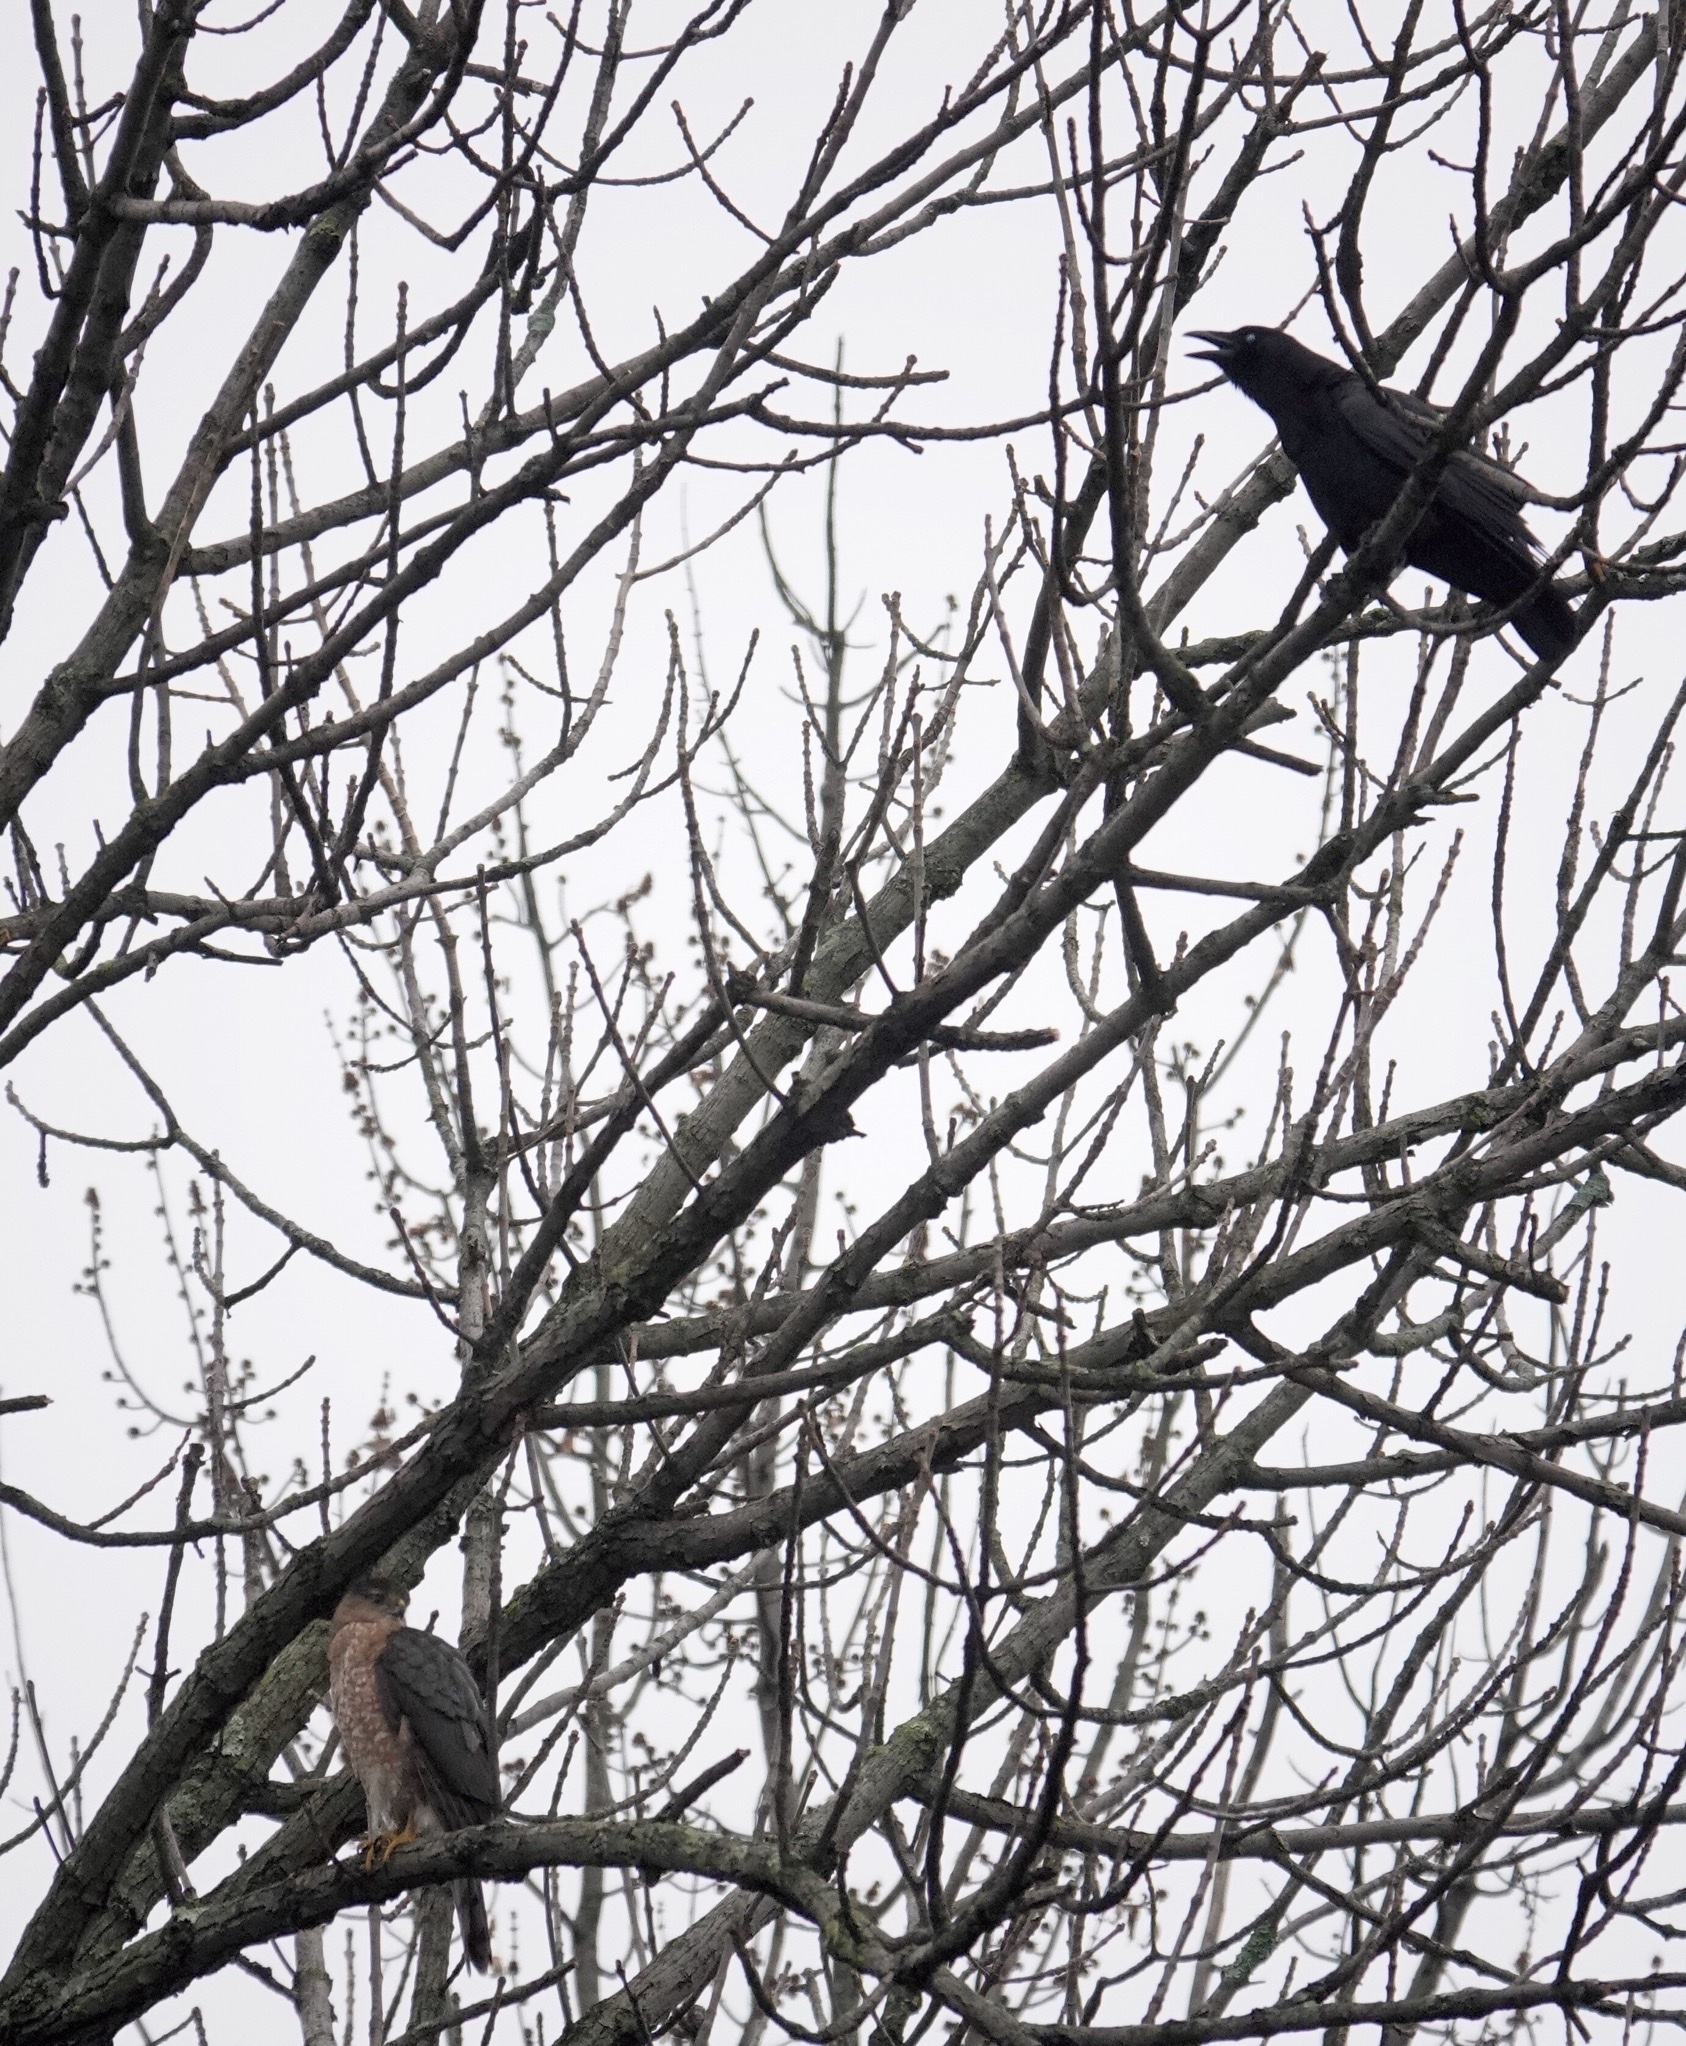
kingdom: Animalia
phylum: Chordata
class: Aves
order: Passeriformes
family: Corvidae
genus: Corvus
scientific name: Corvus brachyrhynchos
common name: American crow
